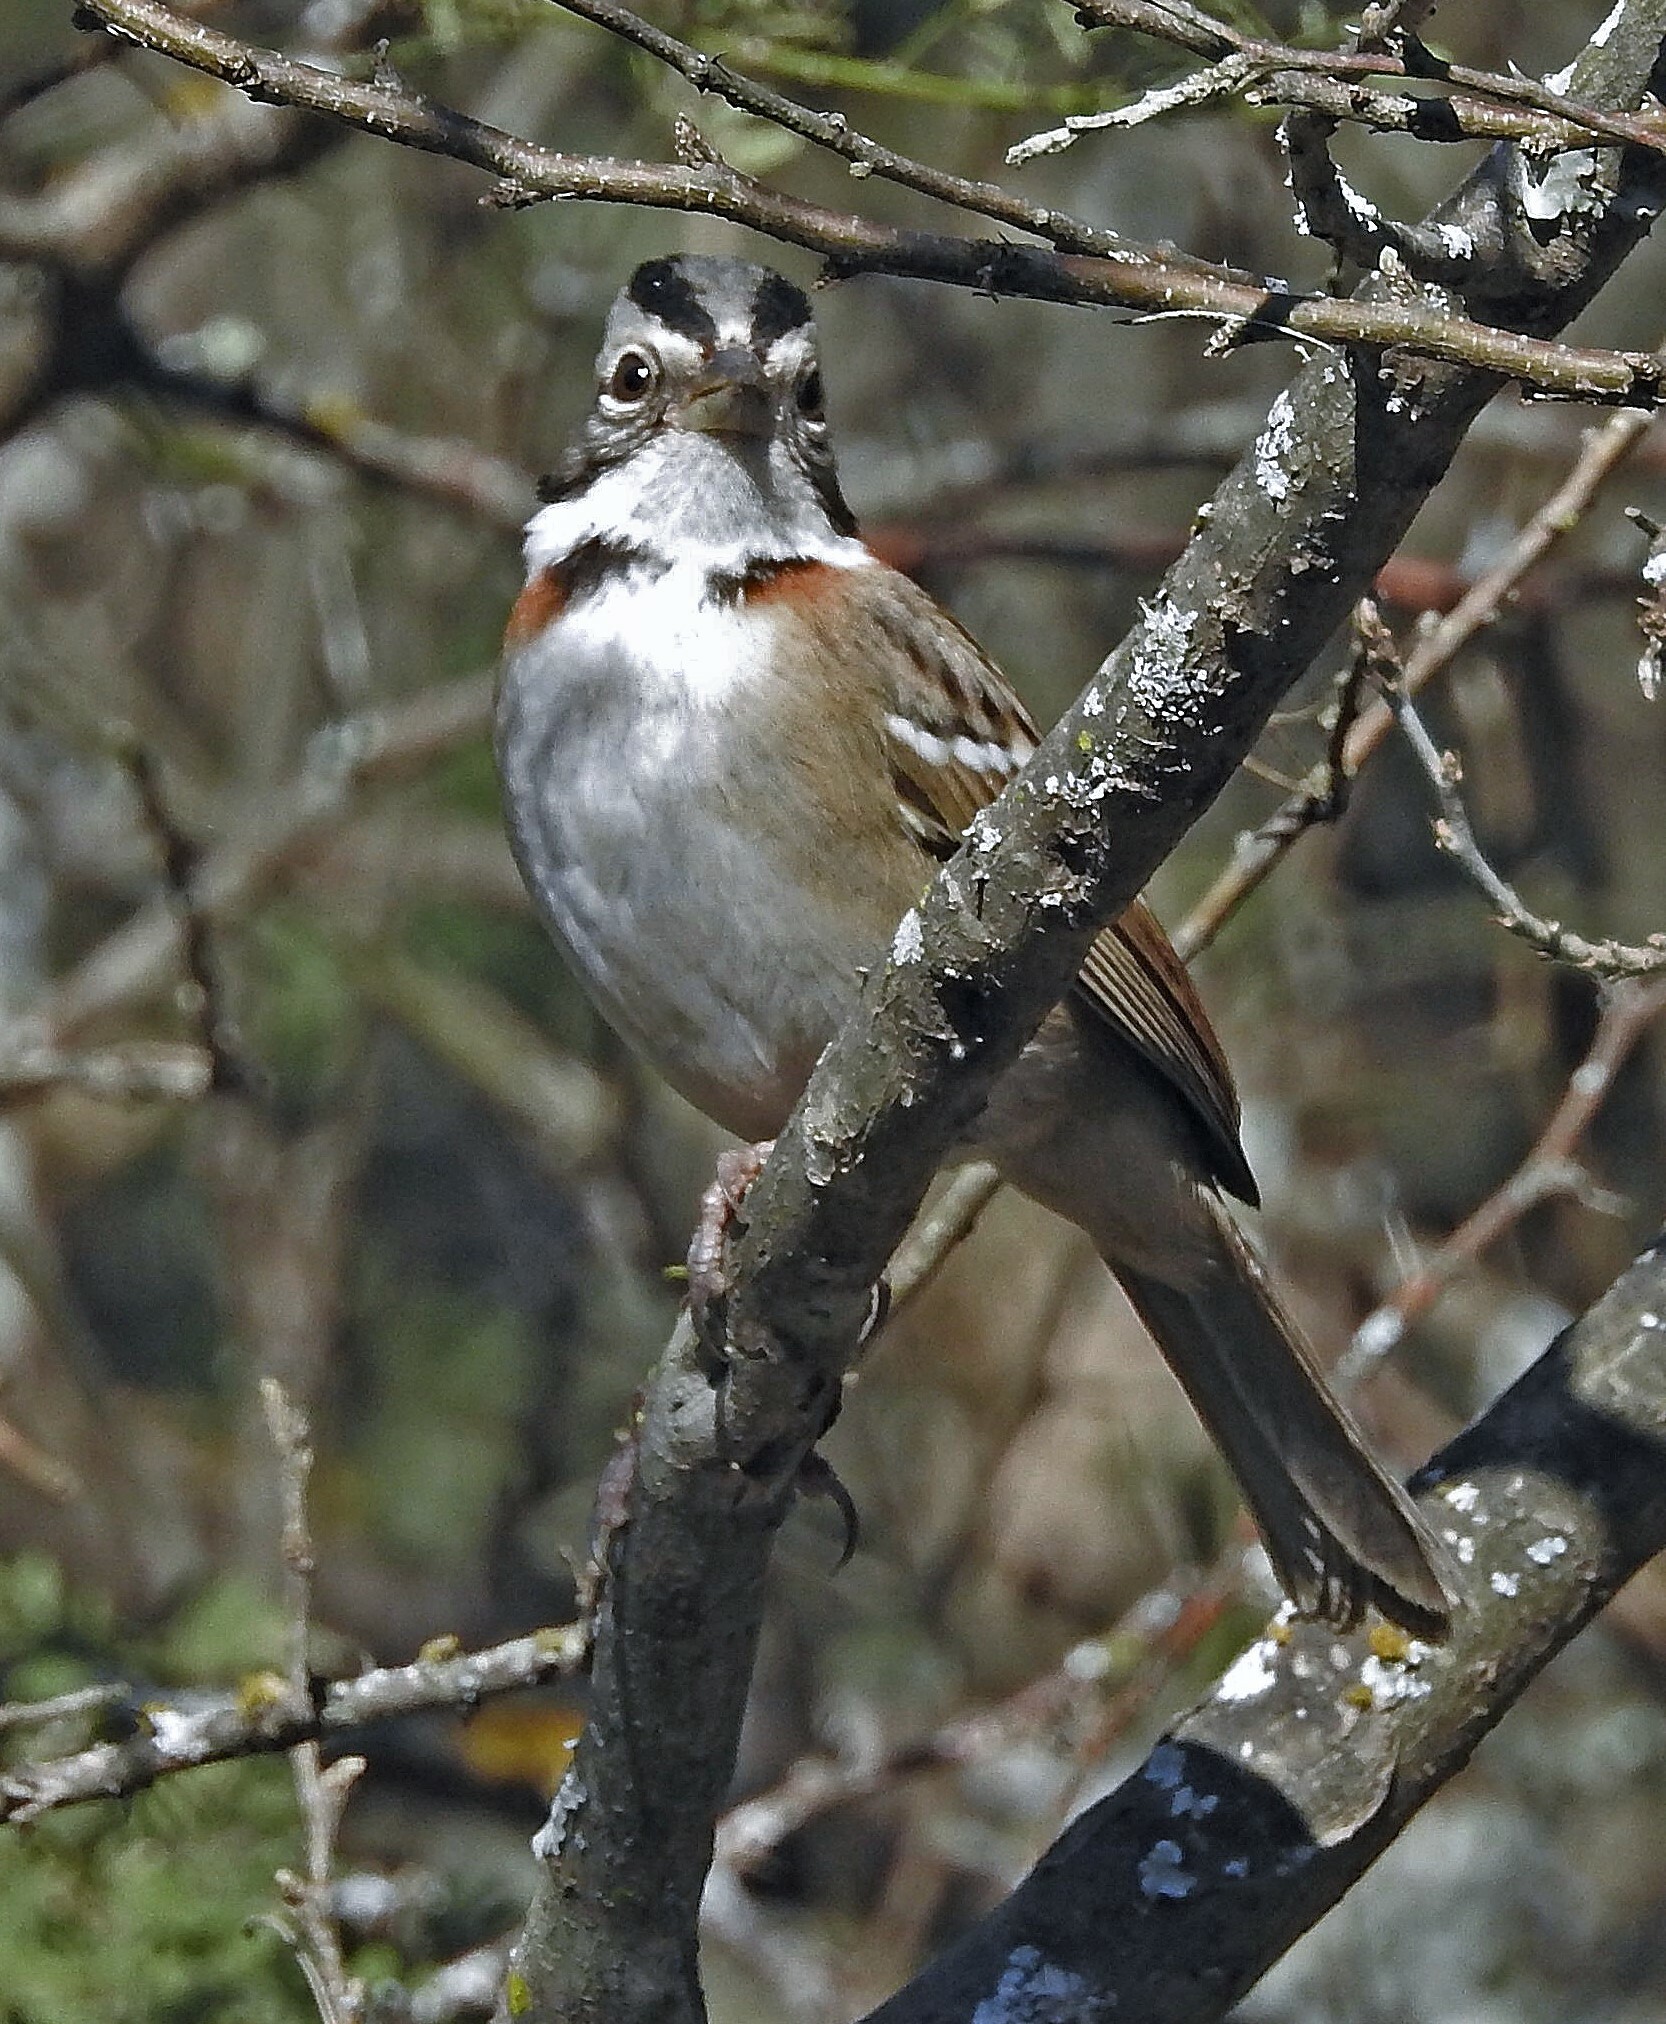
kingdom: Animalia
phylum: Chordata
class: Aves
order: Passeriformes
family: Passerellidae
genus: Zonotrichia
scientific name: Zonotrichia capensis
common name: Rufous-collared sparrow
